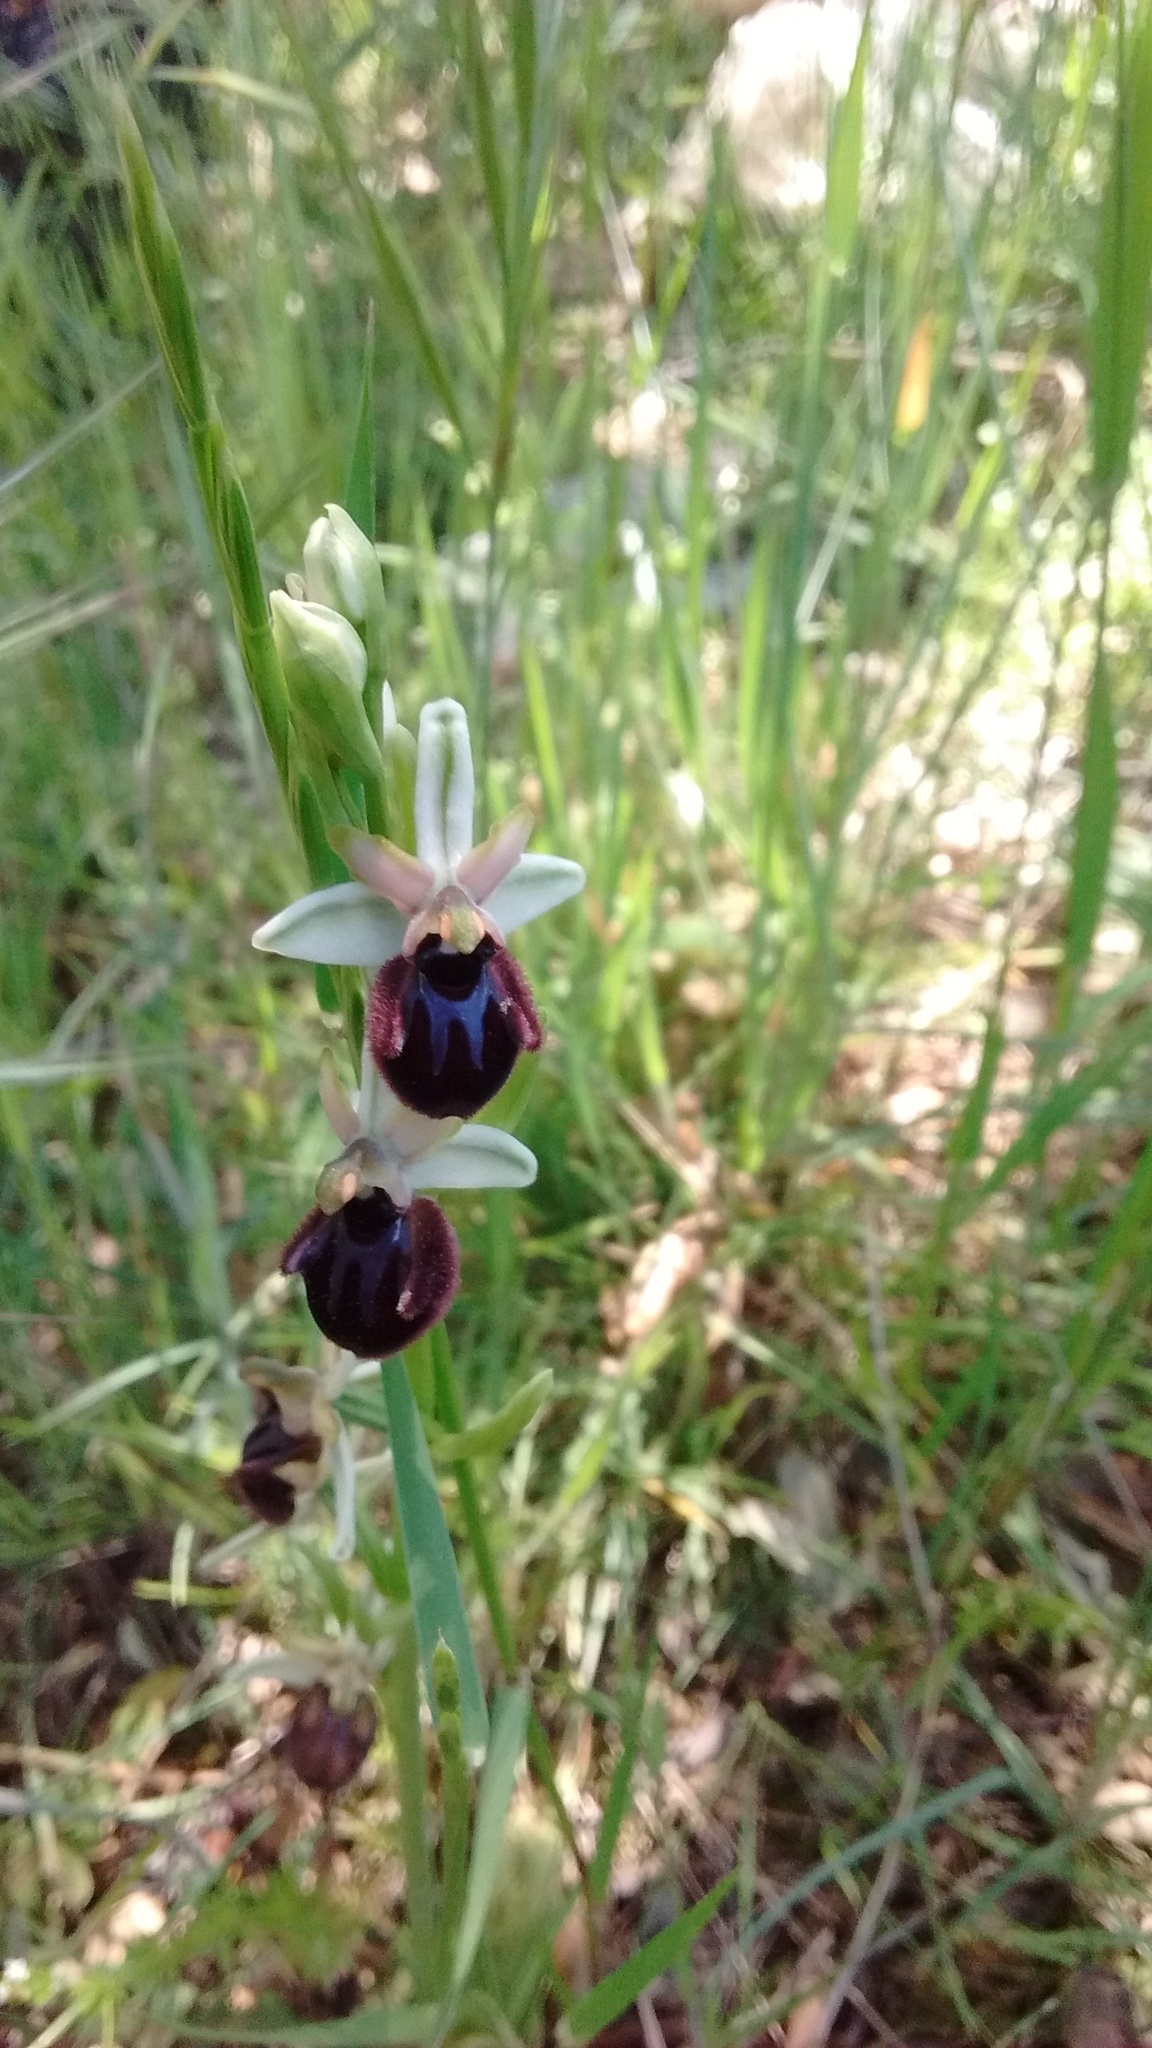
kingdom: Plantae
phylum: Tracheophyta
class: Liliopsida
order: Asparagales
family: Orchidaceae
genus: Ophrys
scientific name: Ophrys sphegodes
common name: Early spider-orchid
